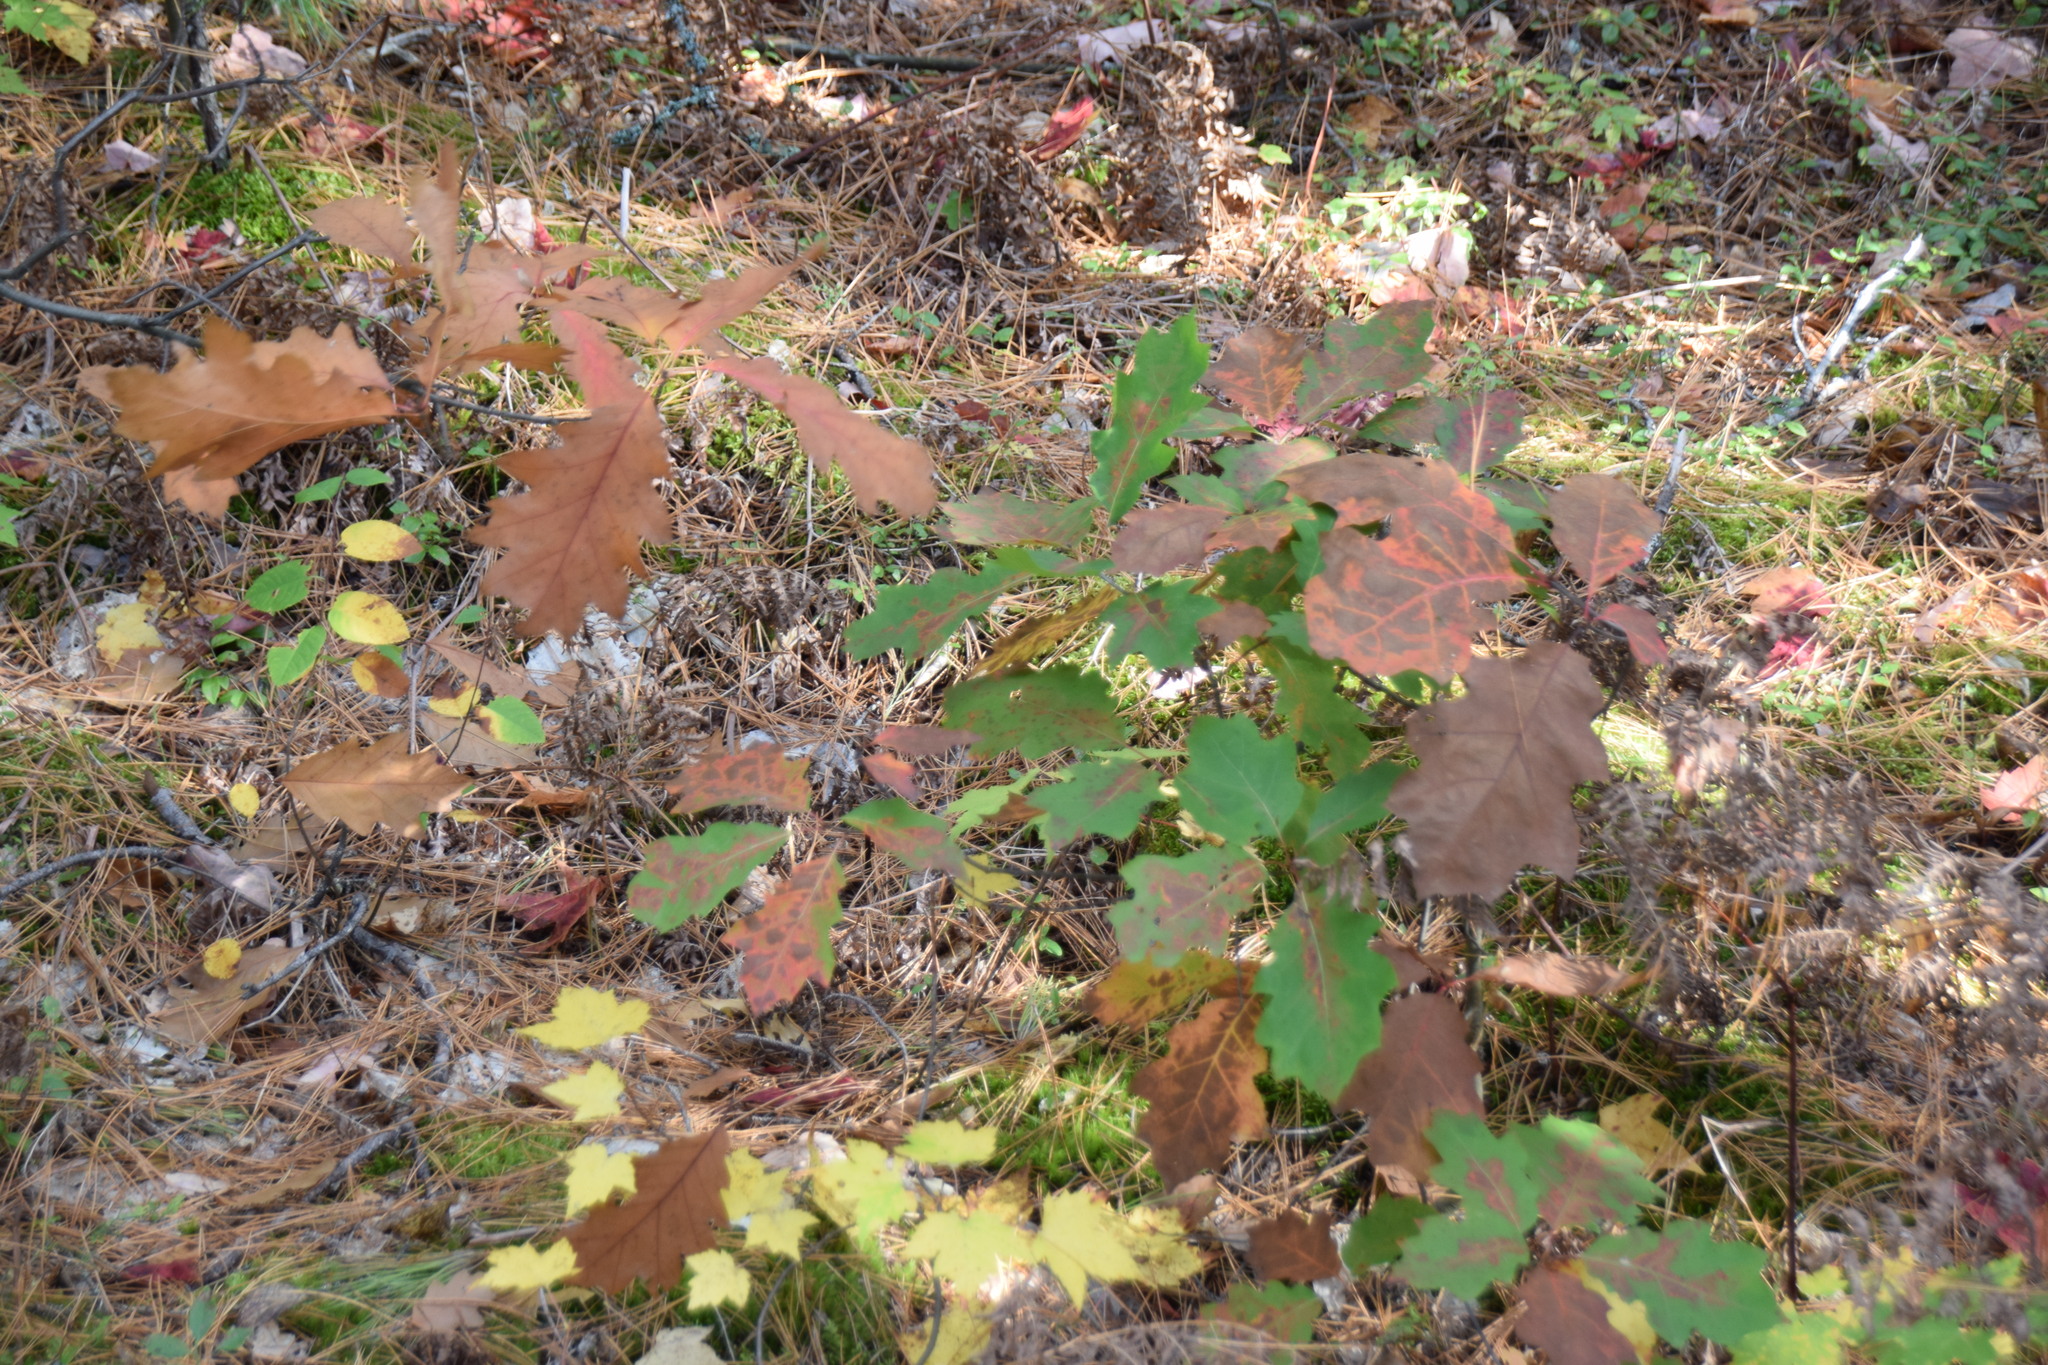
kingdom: Plantae
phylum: Tracheophyta
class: Magnoliopsida
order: Fagales
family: Fagaceae
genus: Quercus
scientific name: Quercus rubra
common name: Red oak
